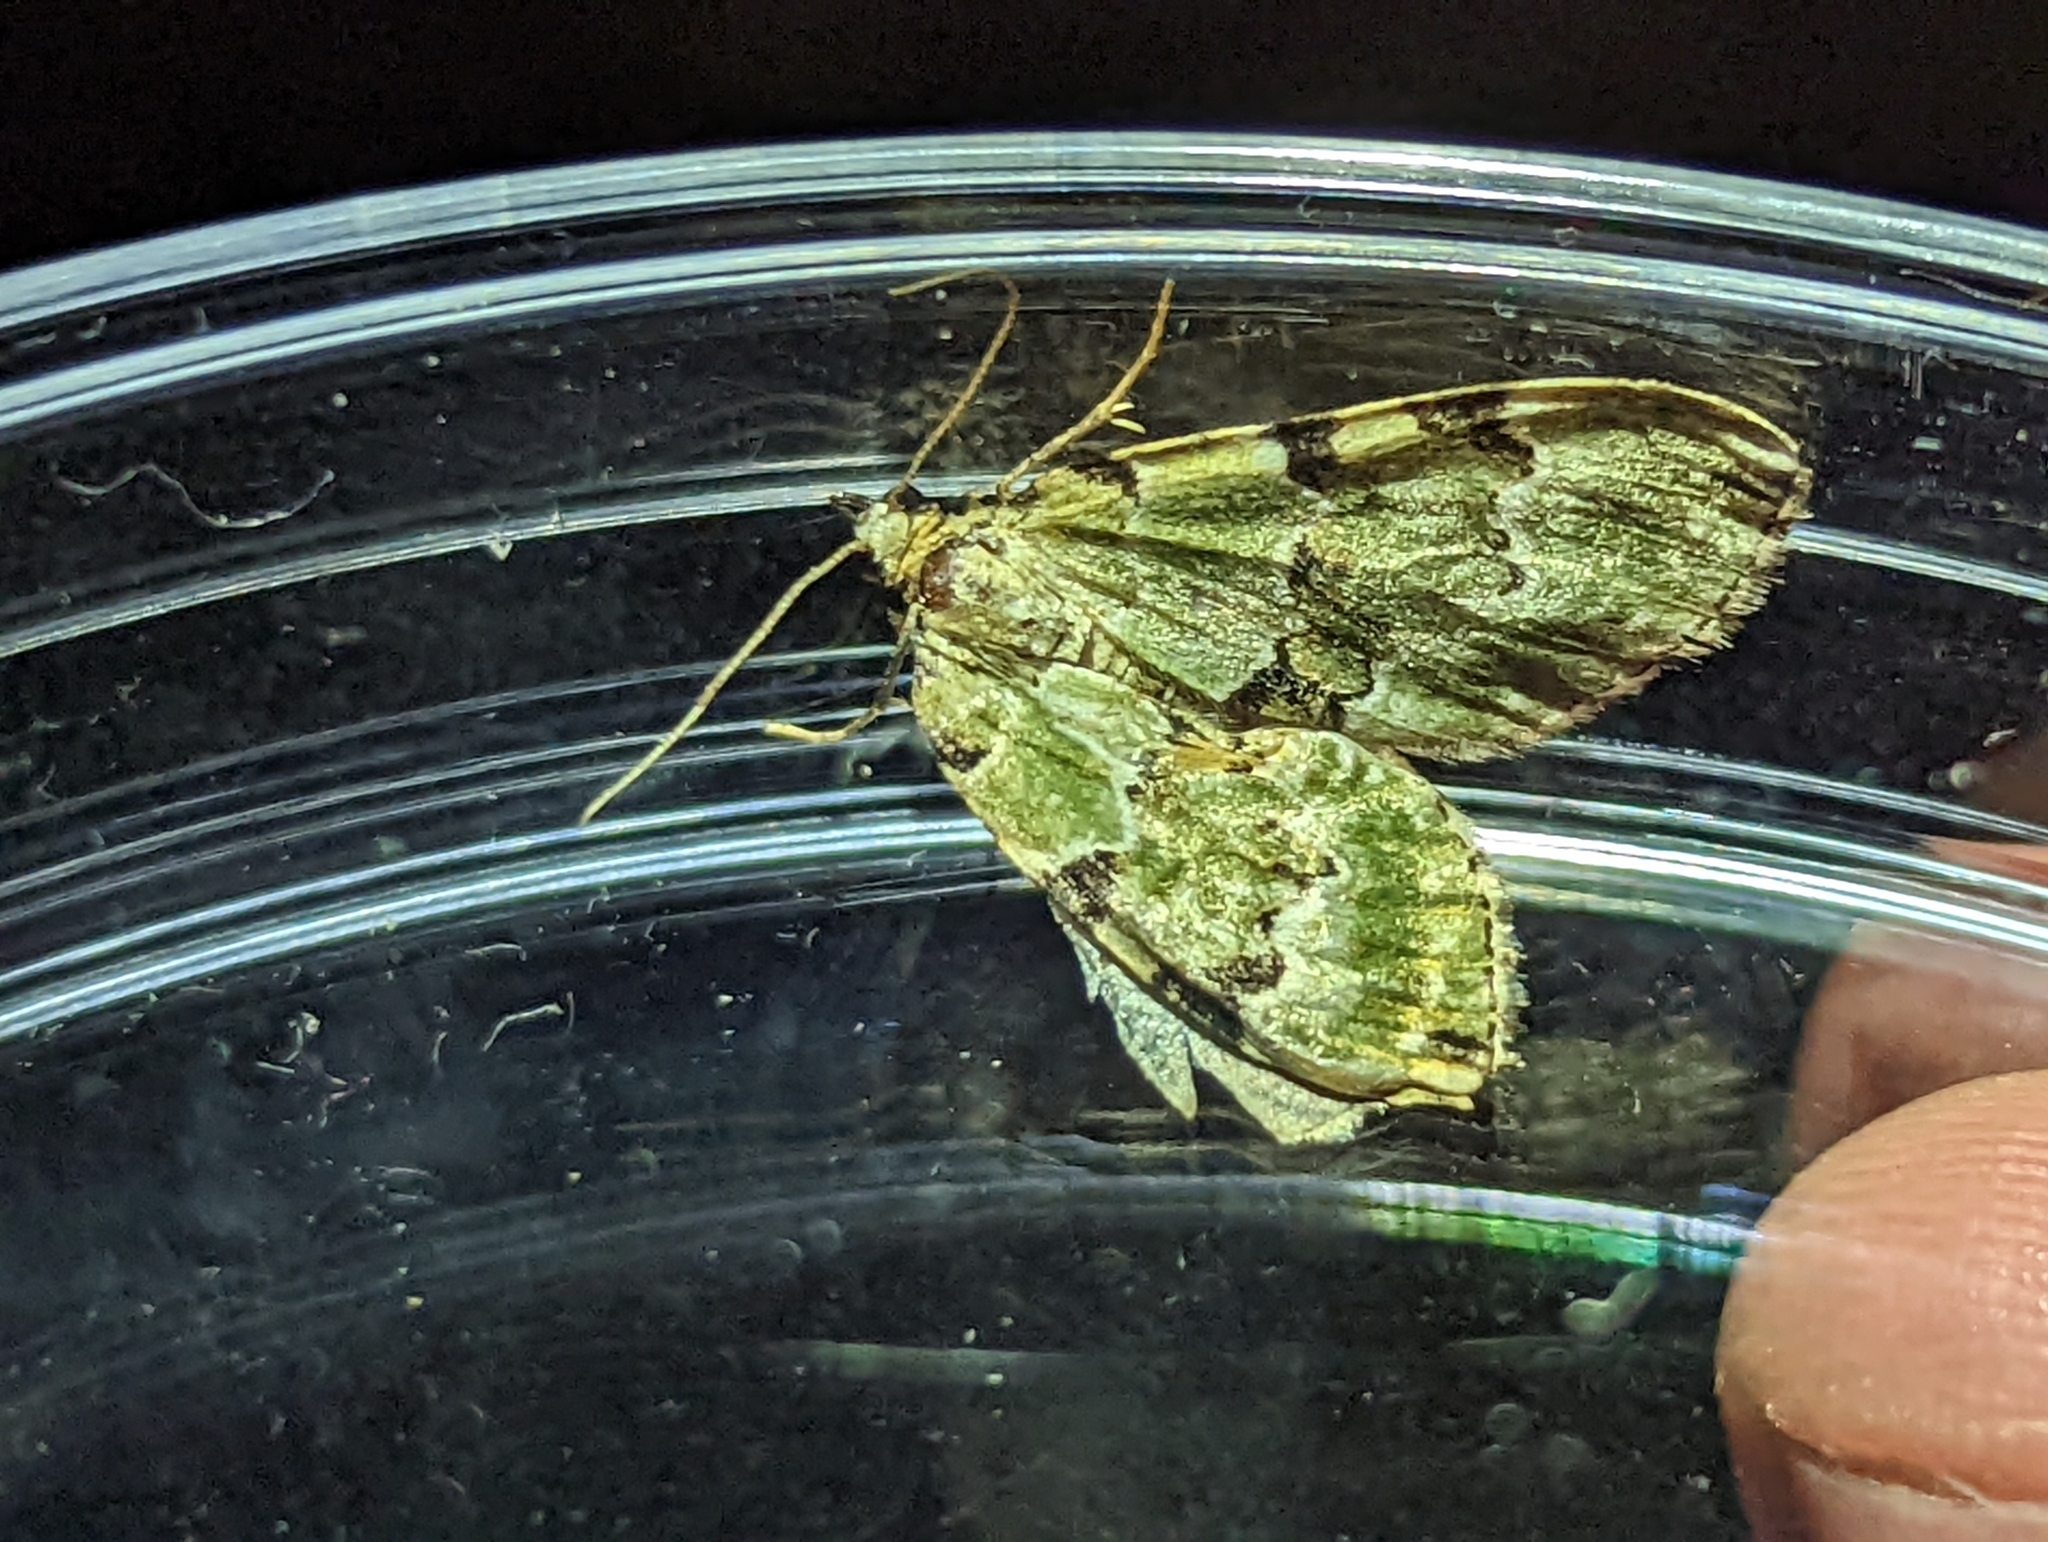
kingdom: Animalia
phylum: Arthropoda
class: Insecta
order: Lepidoptera
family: Geometridae
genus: Colostygia
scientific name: Colostygia pectinataria
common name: Green carpet
